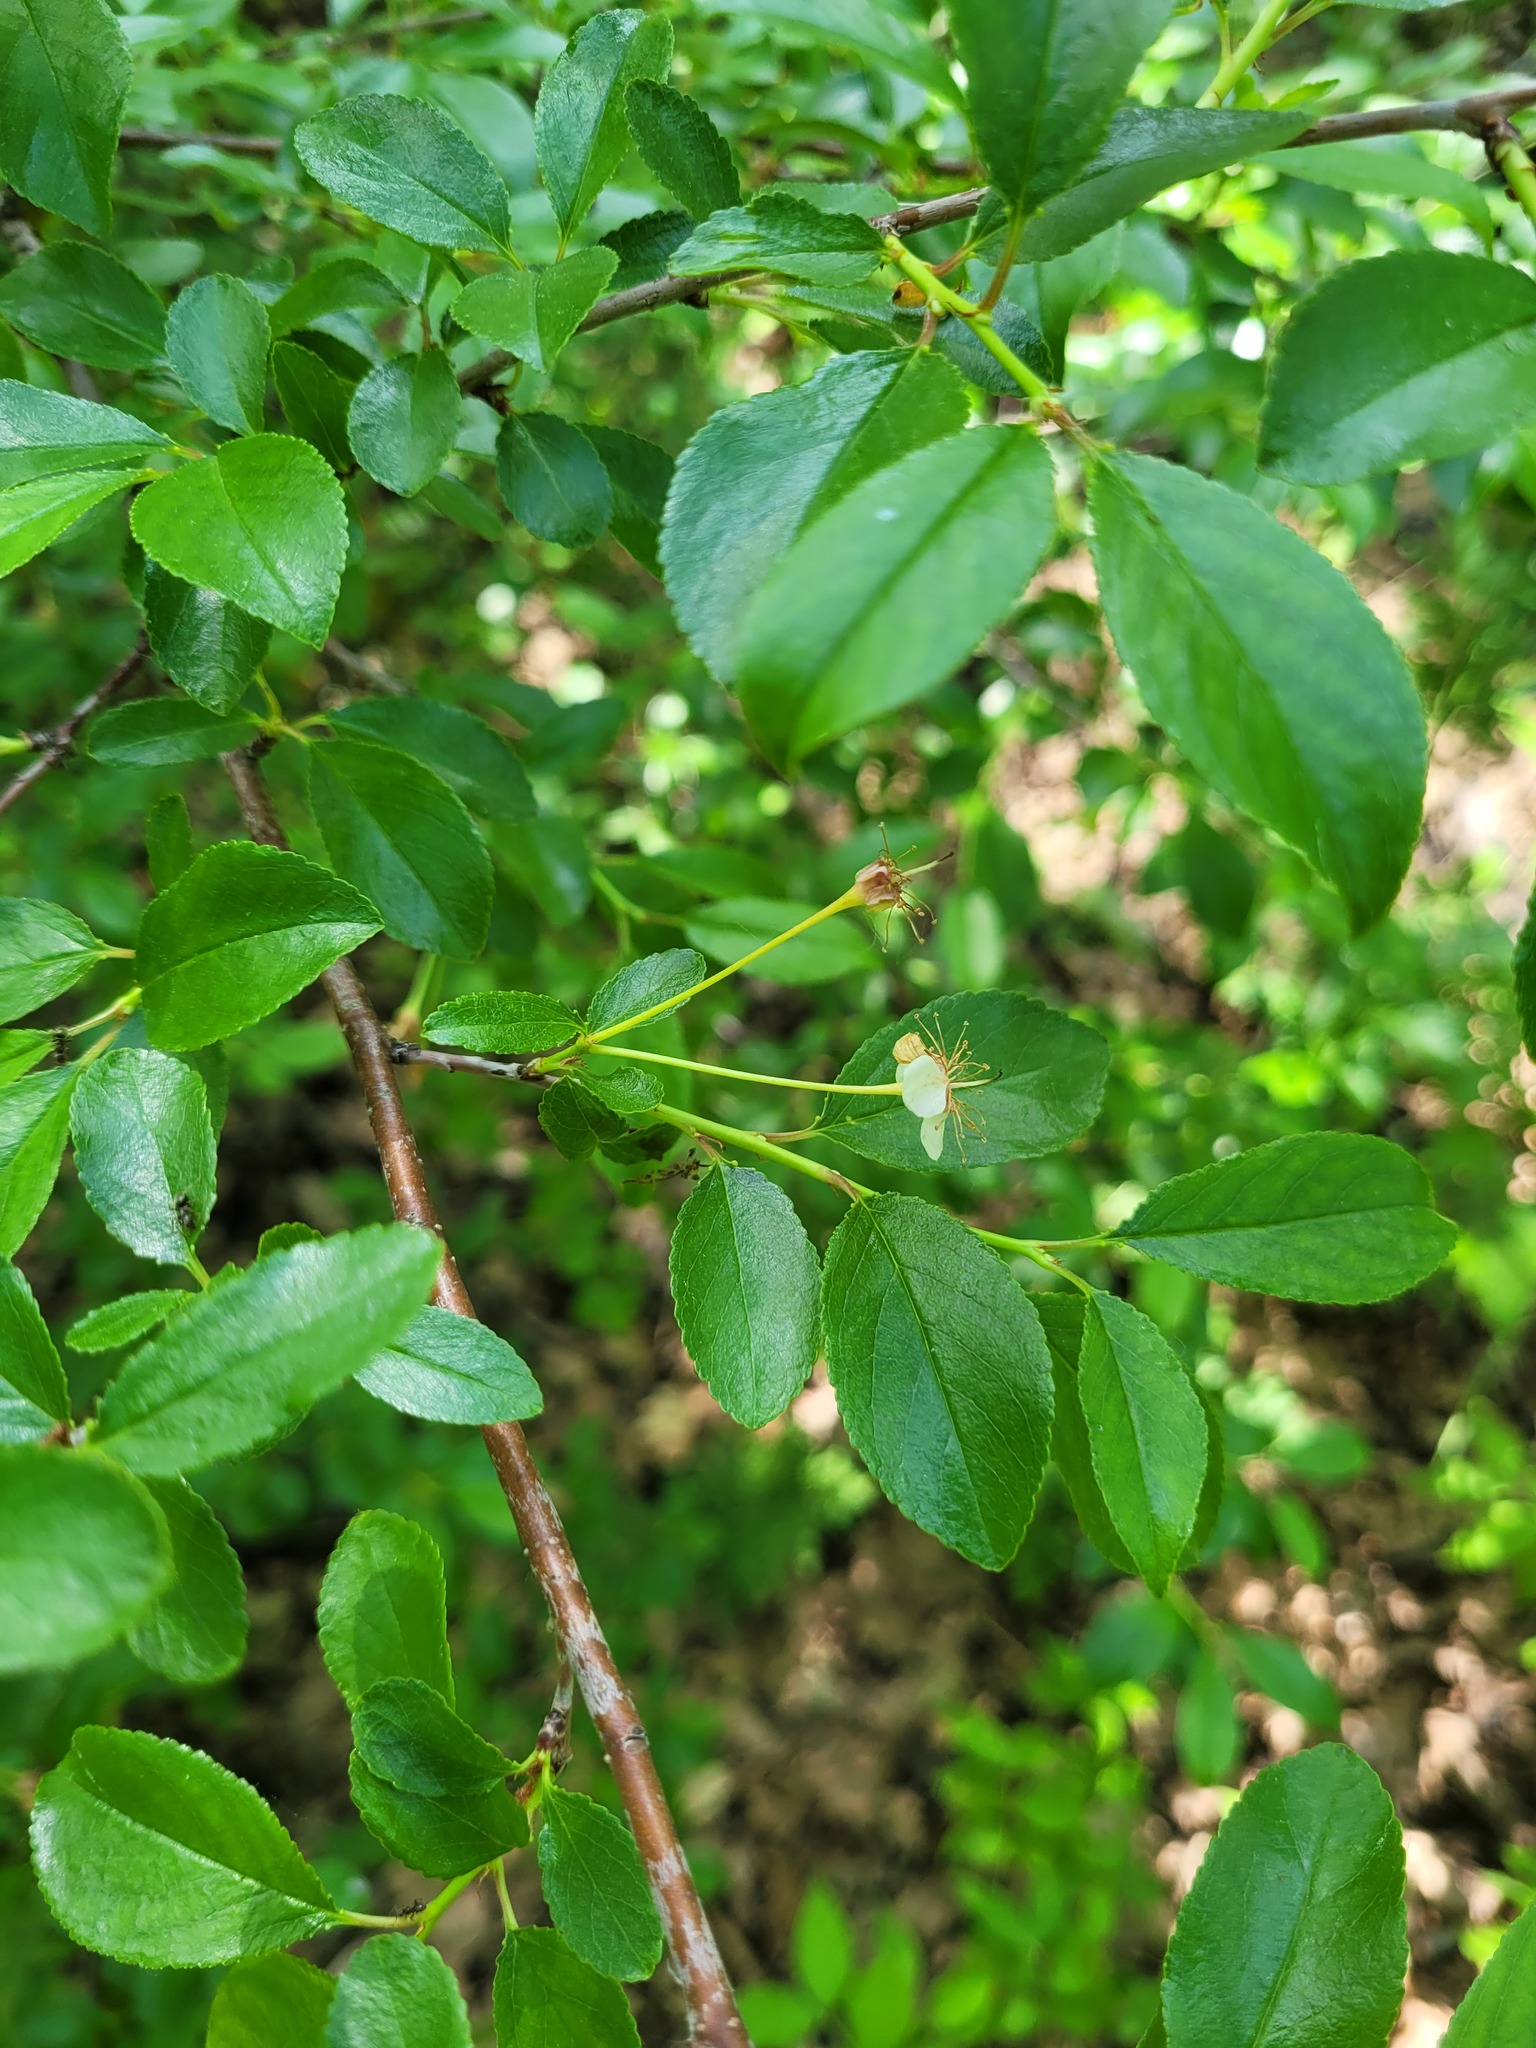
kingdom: Plantae
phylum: Tracheophyta
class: Magnoliopsida
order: Rosales
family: Rosaceae
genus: Prunus
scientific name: Prunus fruticosa
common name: European dwarf cherry
